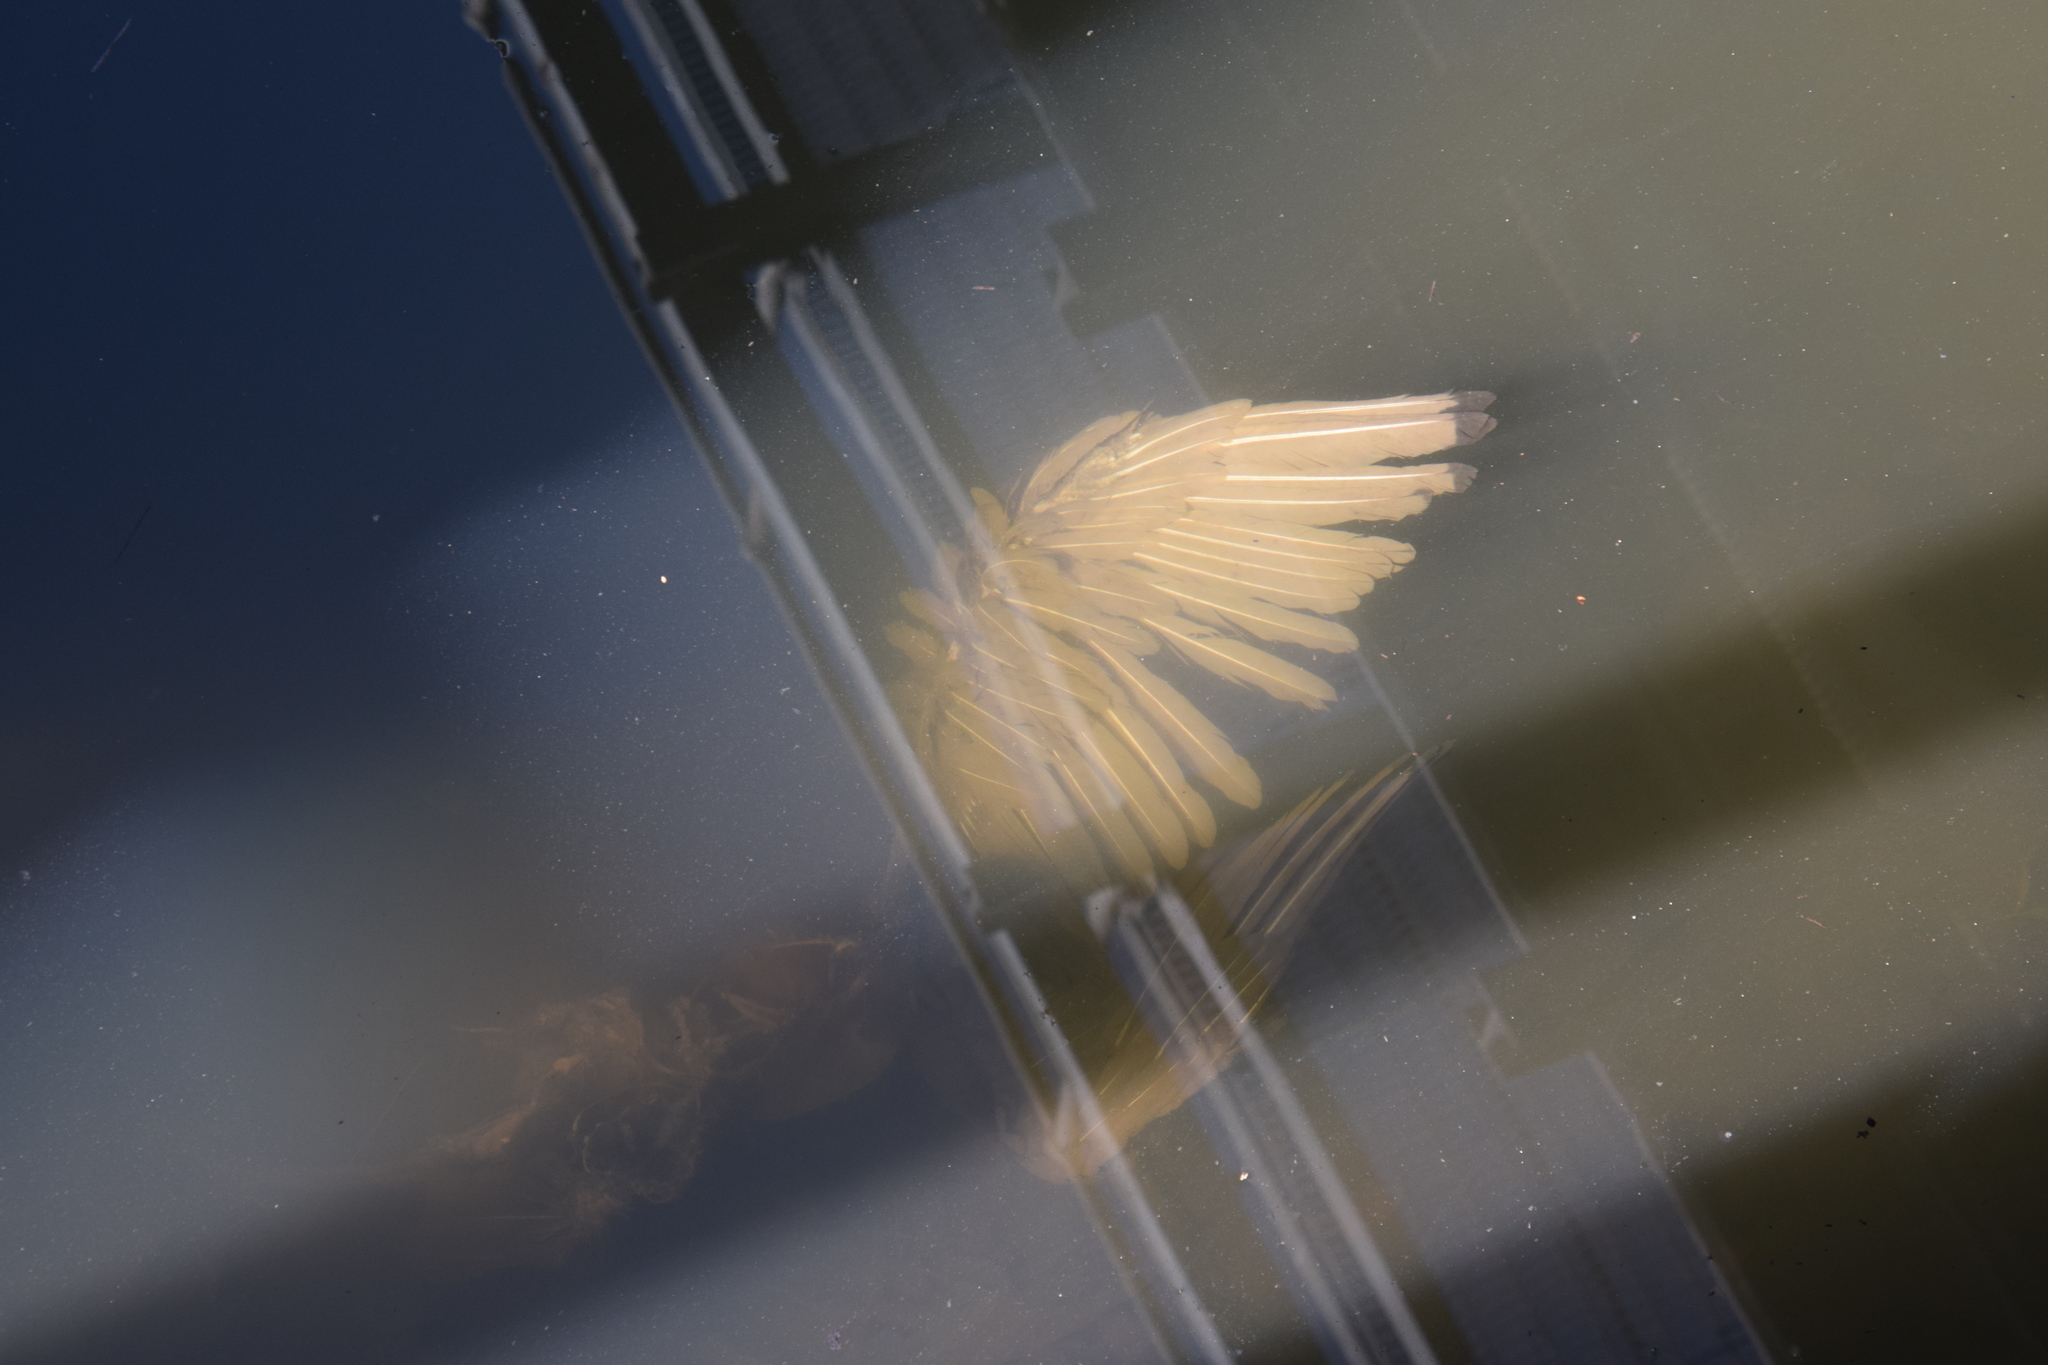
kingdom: Animalia
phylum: Chordata
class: Aves
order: Pelecaniformes
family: Threskiornithidae
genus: Threskiornis
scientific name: Threskiornis molucca
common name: Australian white ibis
